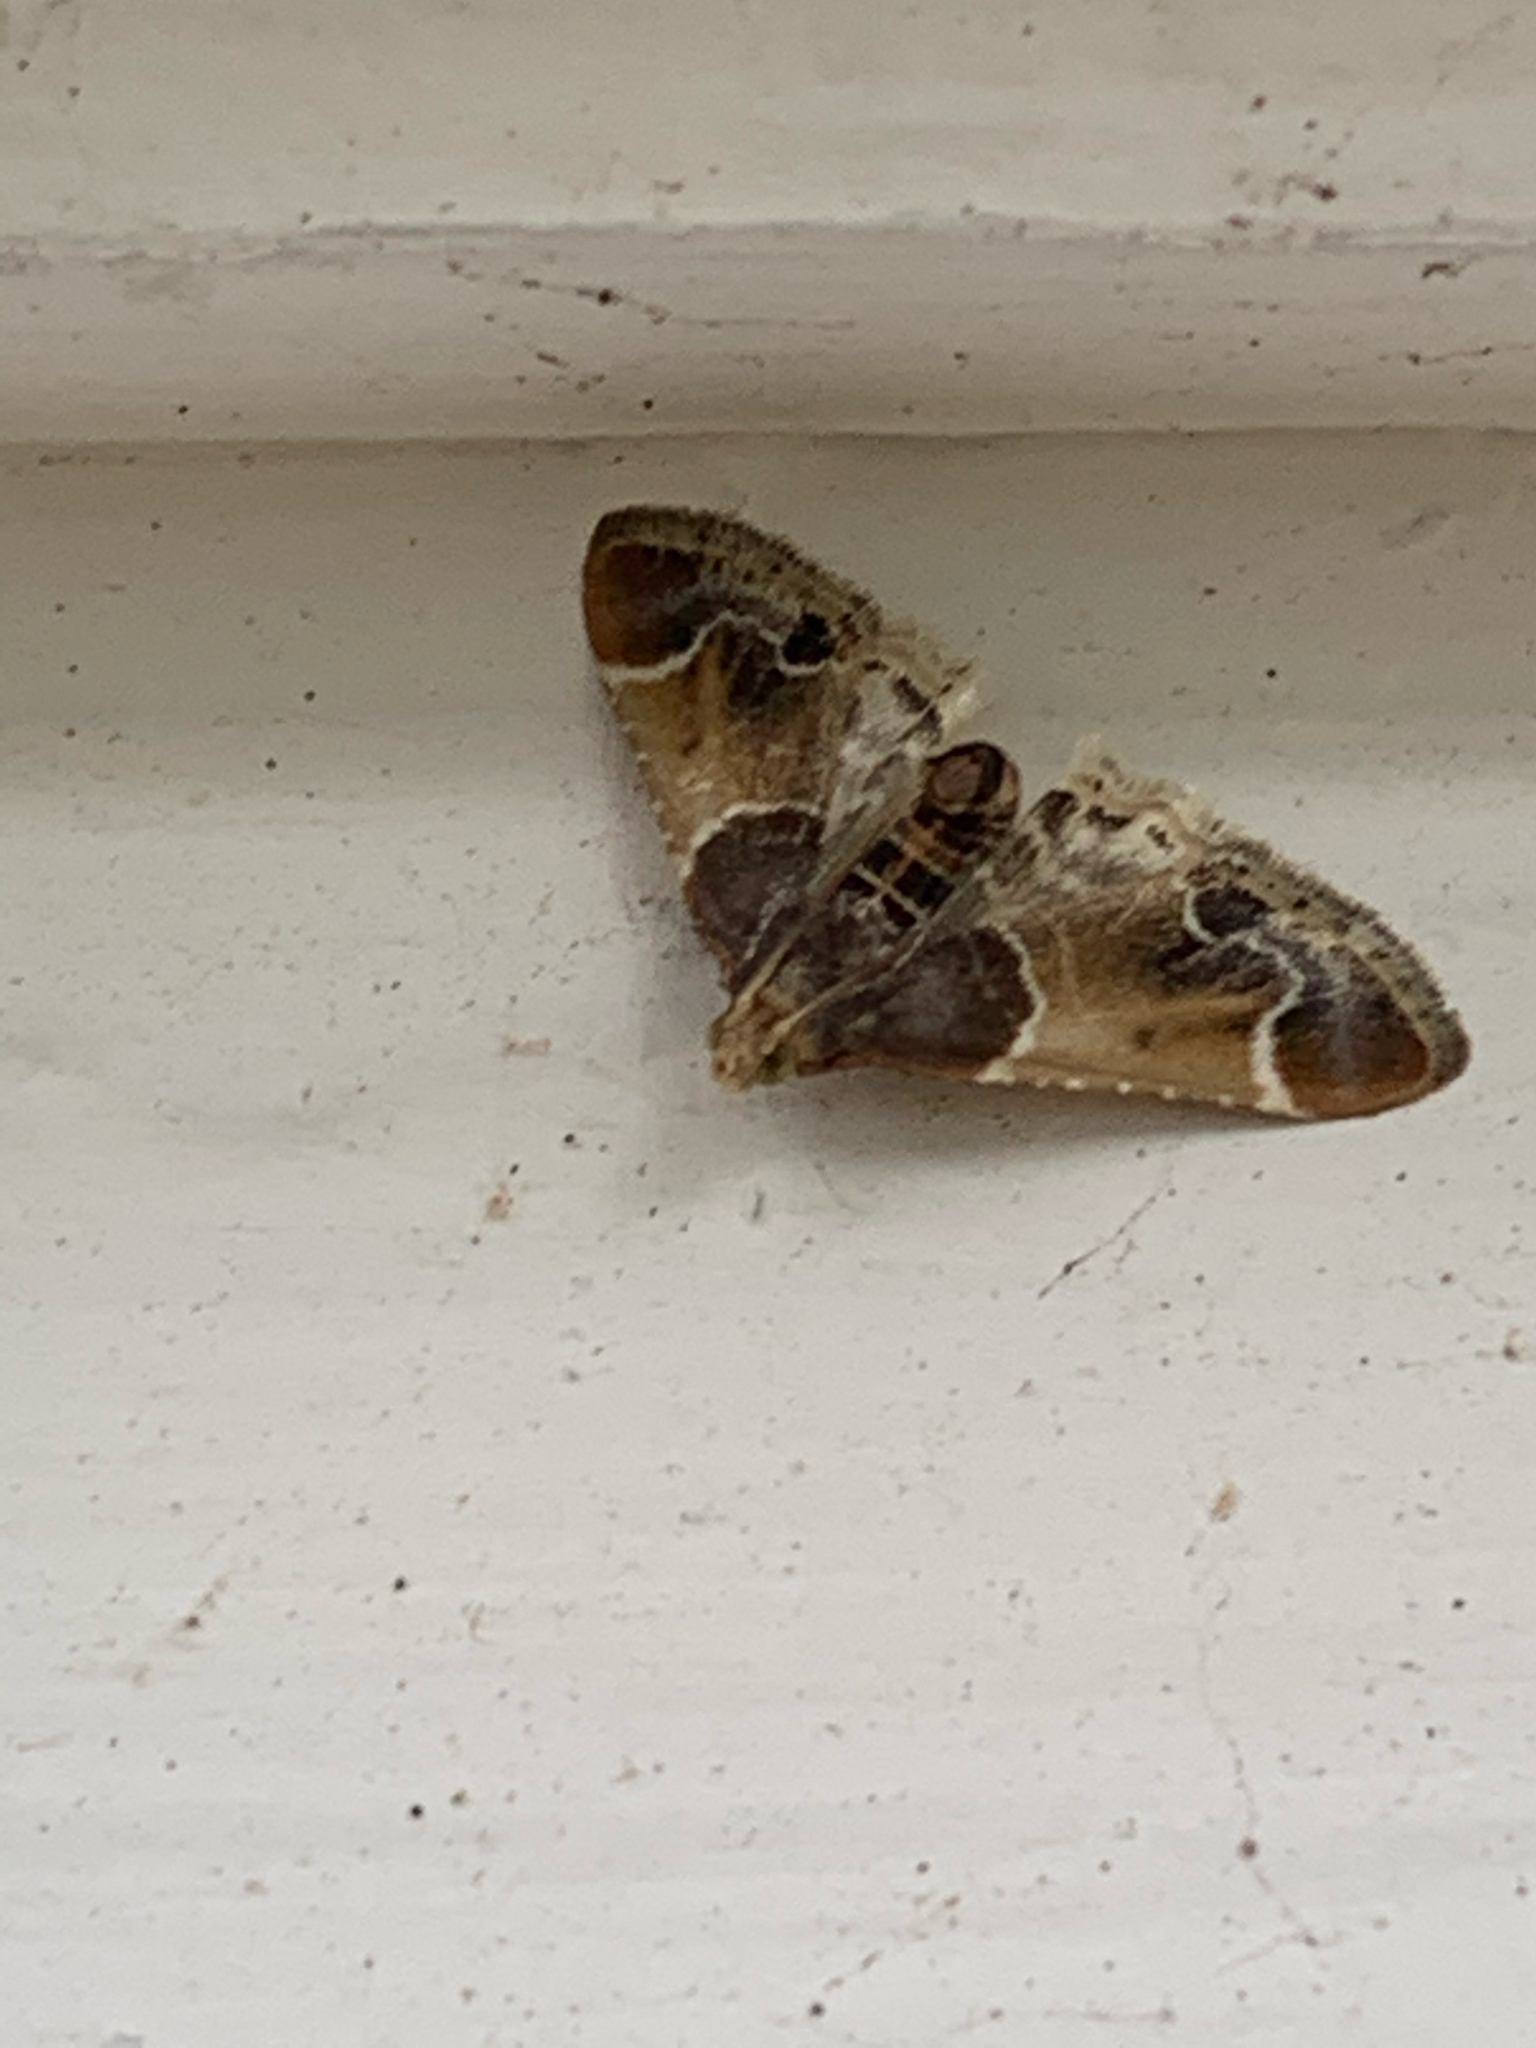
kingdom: Animalia
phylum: Arthropoda
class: Insecta
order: Lepidoptera
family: Pyralidae
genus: Pyralis
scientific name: Pyralis farinalis
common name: Meal moth
